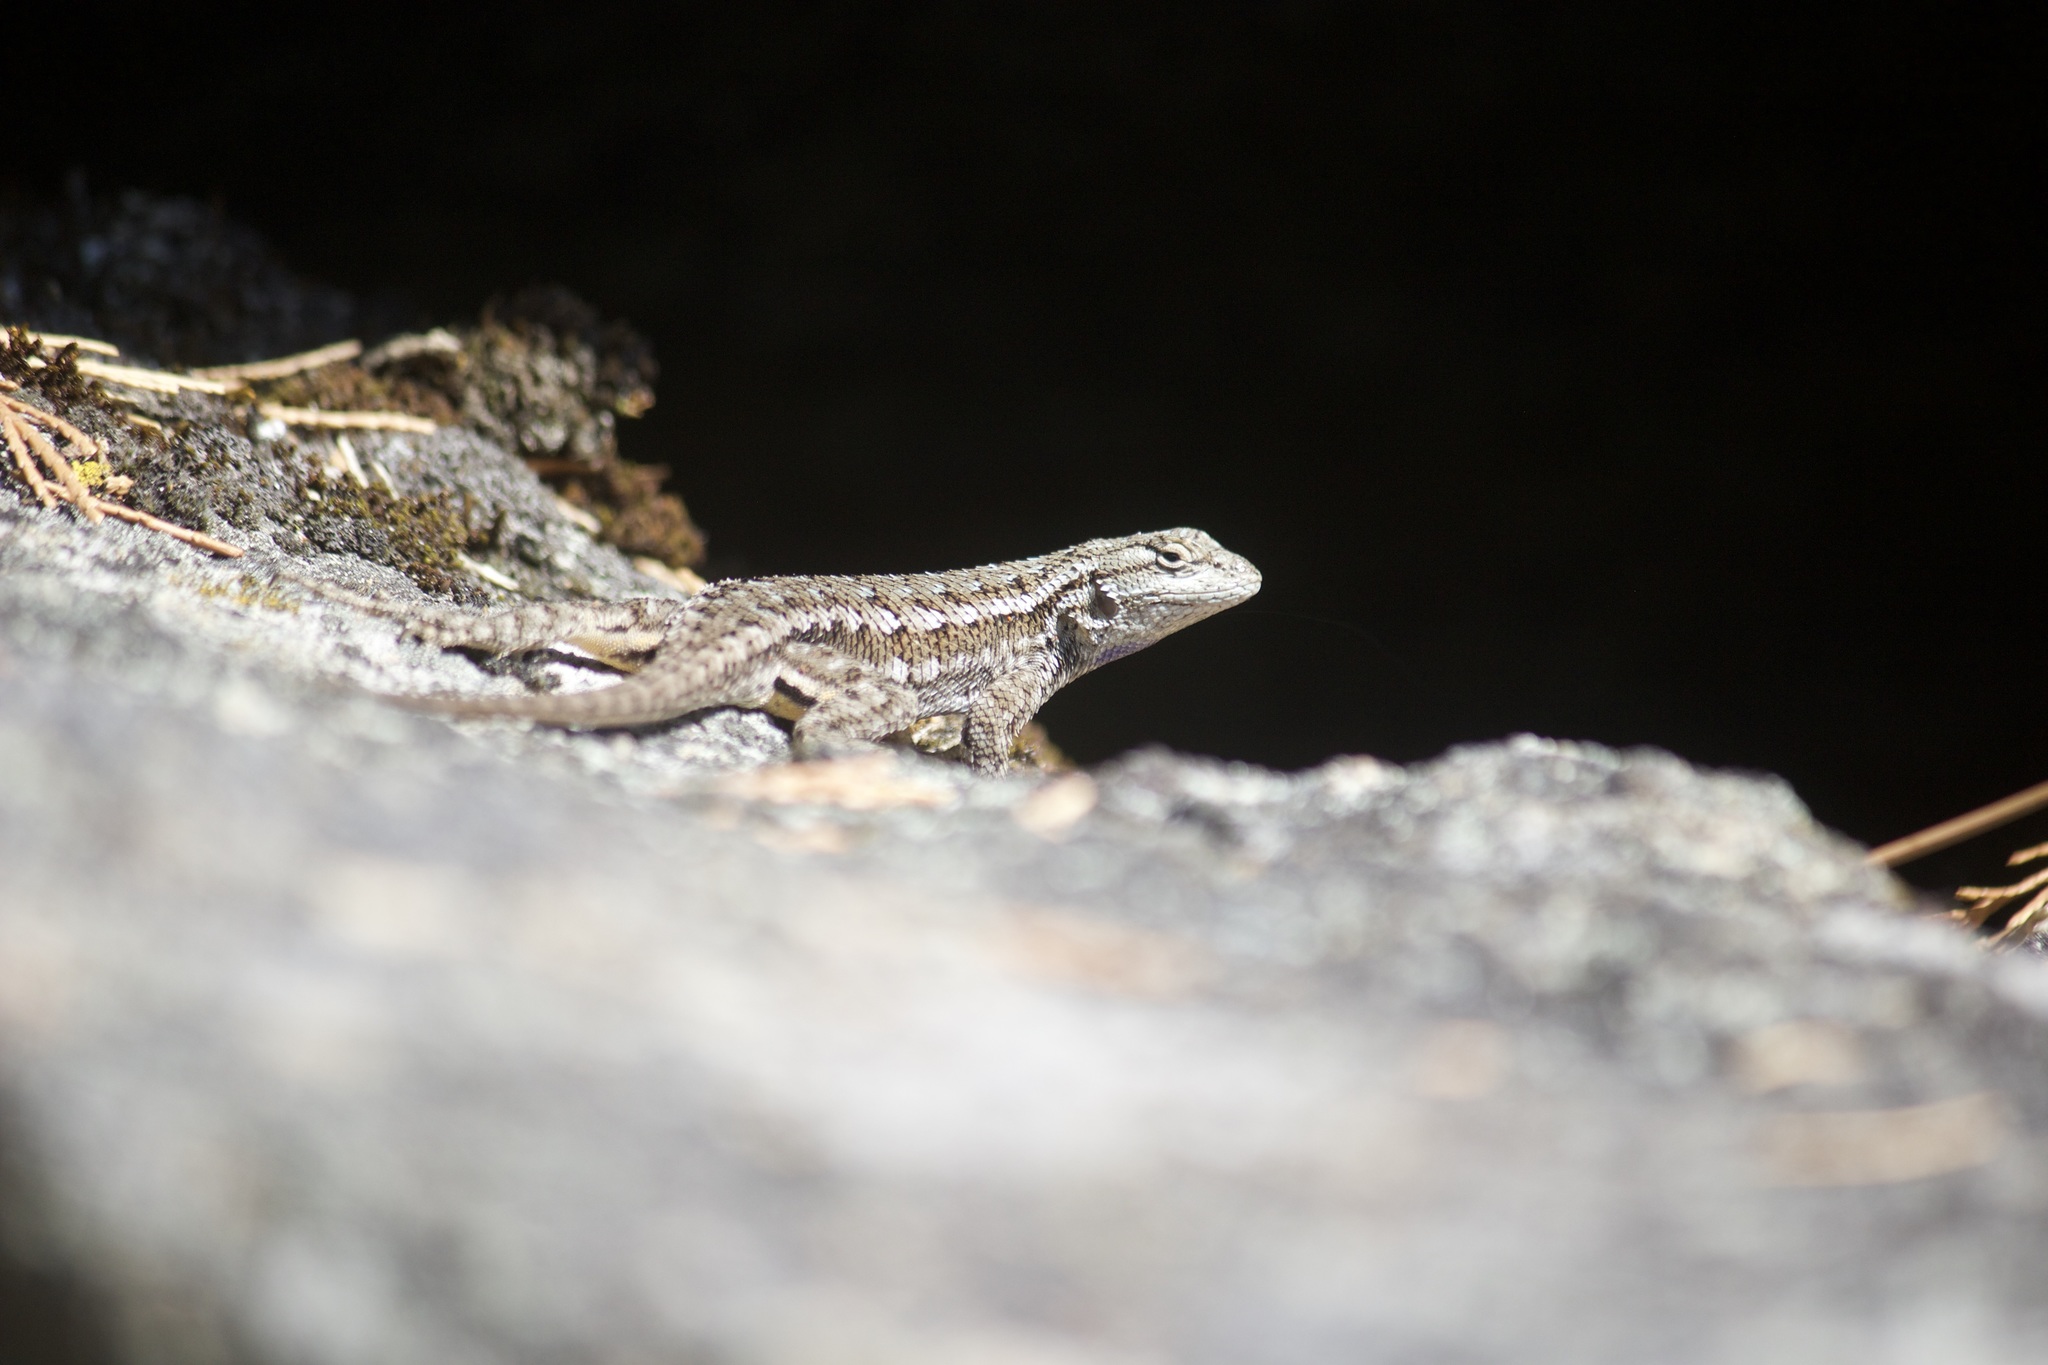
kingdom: Animalia
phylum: Chordata
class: Squamata
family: Phrynosomatidae
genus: Sceloporus
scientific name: Sceloporus occidentalis
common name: Western fence lizard
